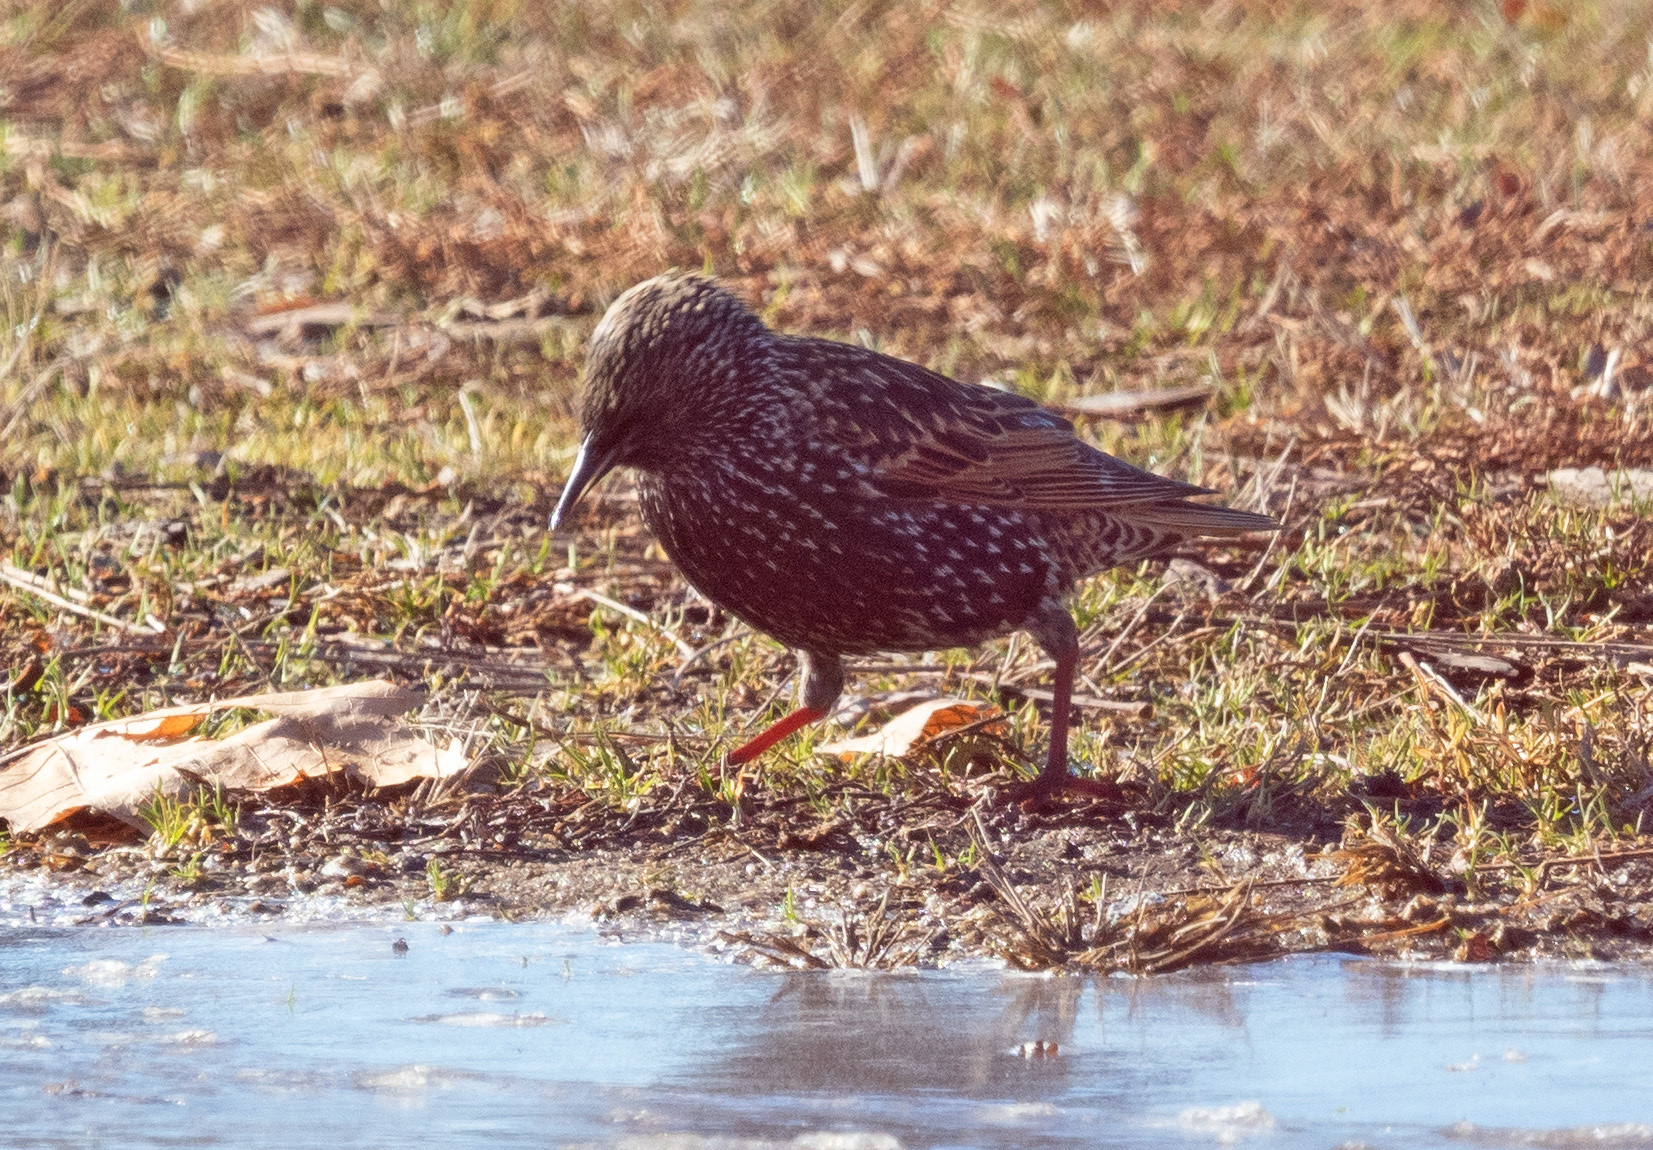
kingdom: Animalia
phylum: Chordata
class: Aves
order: Passeriformes
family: Sturnidae
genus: Sturnus
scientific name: Sturnus vulgaris
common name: Common starling
